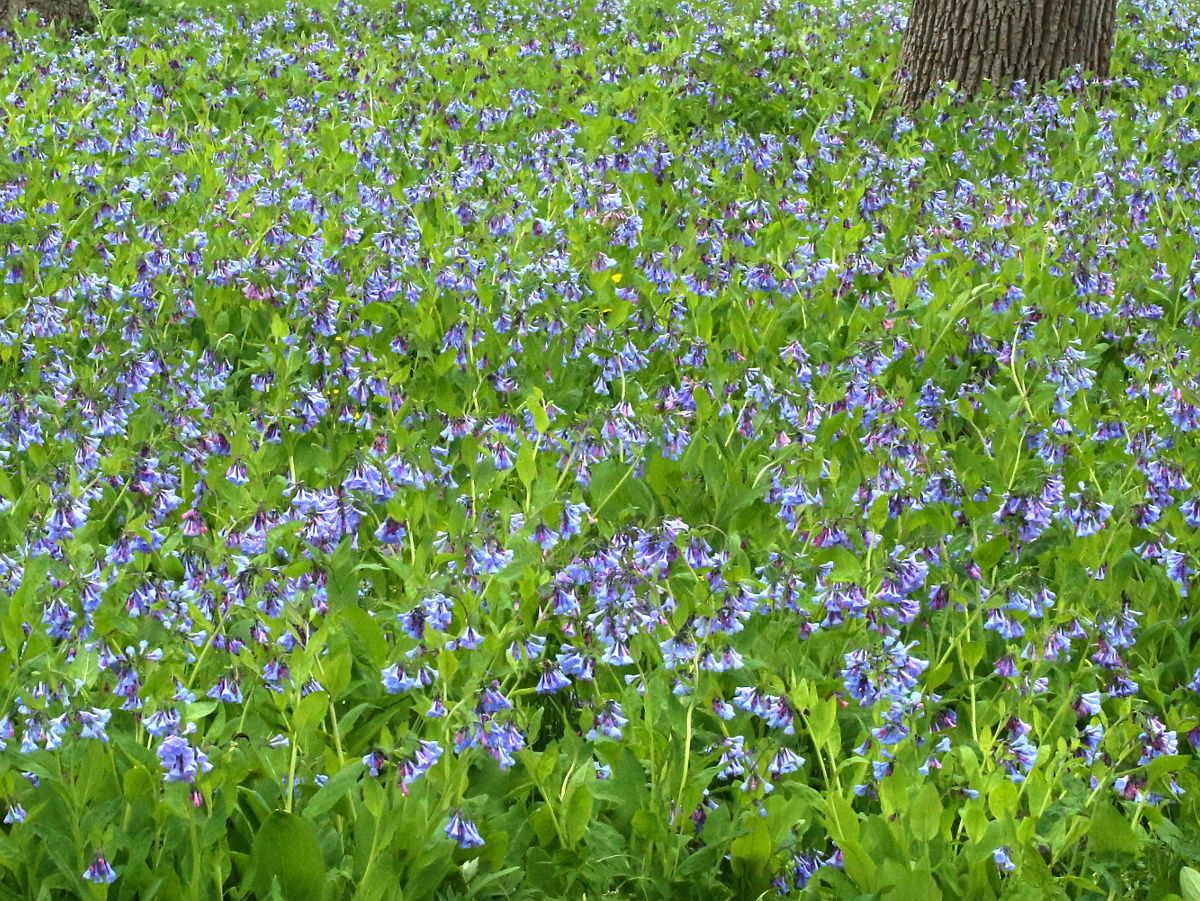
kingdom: Plantae
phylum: Tracheophyta
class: Magnoliopsida
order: Boraginales
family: Boraginaceae
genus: Mertensia
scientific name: Mertensia virginica
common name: Virginia bluebells
